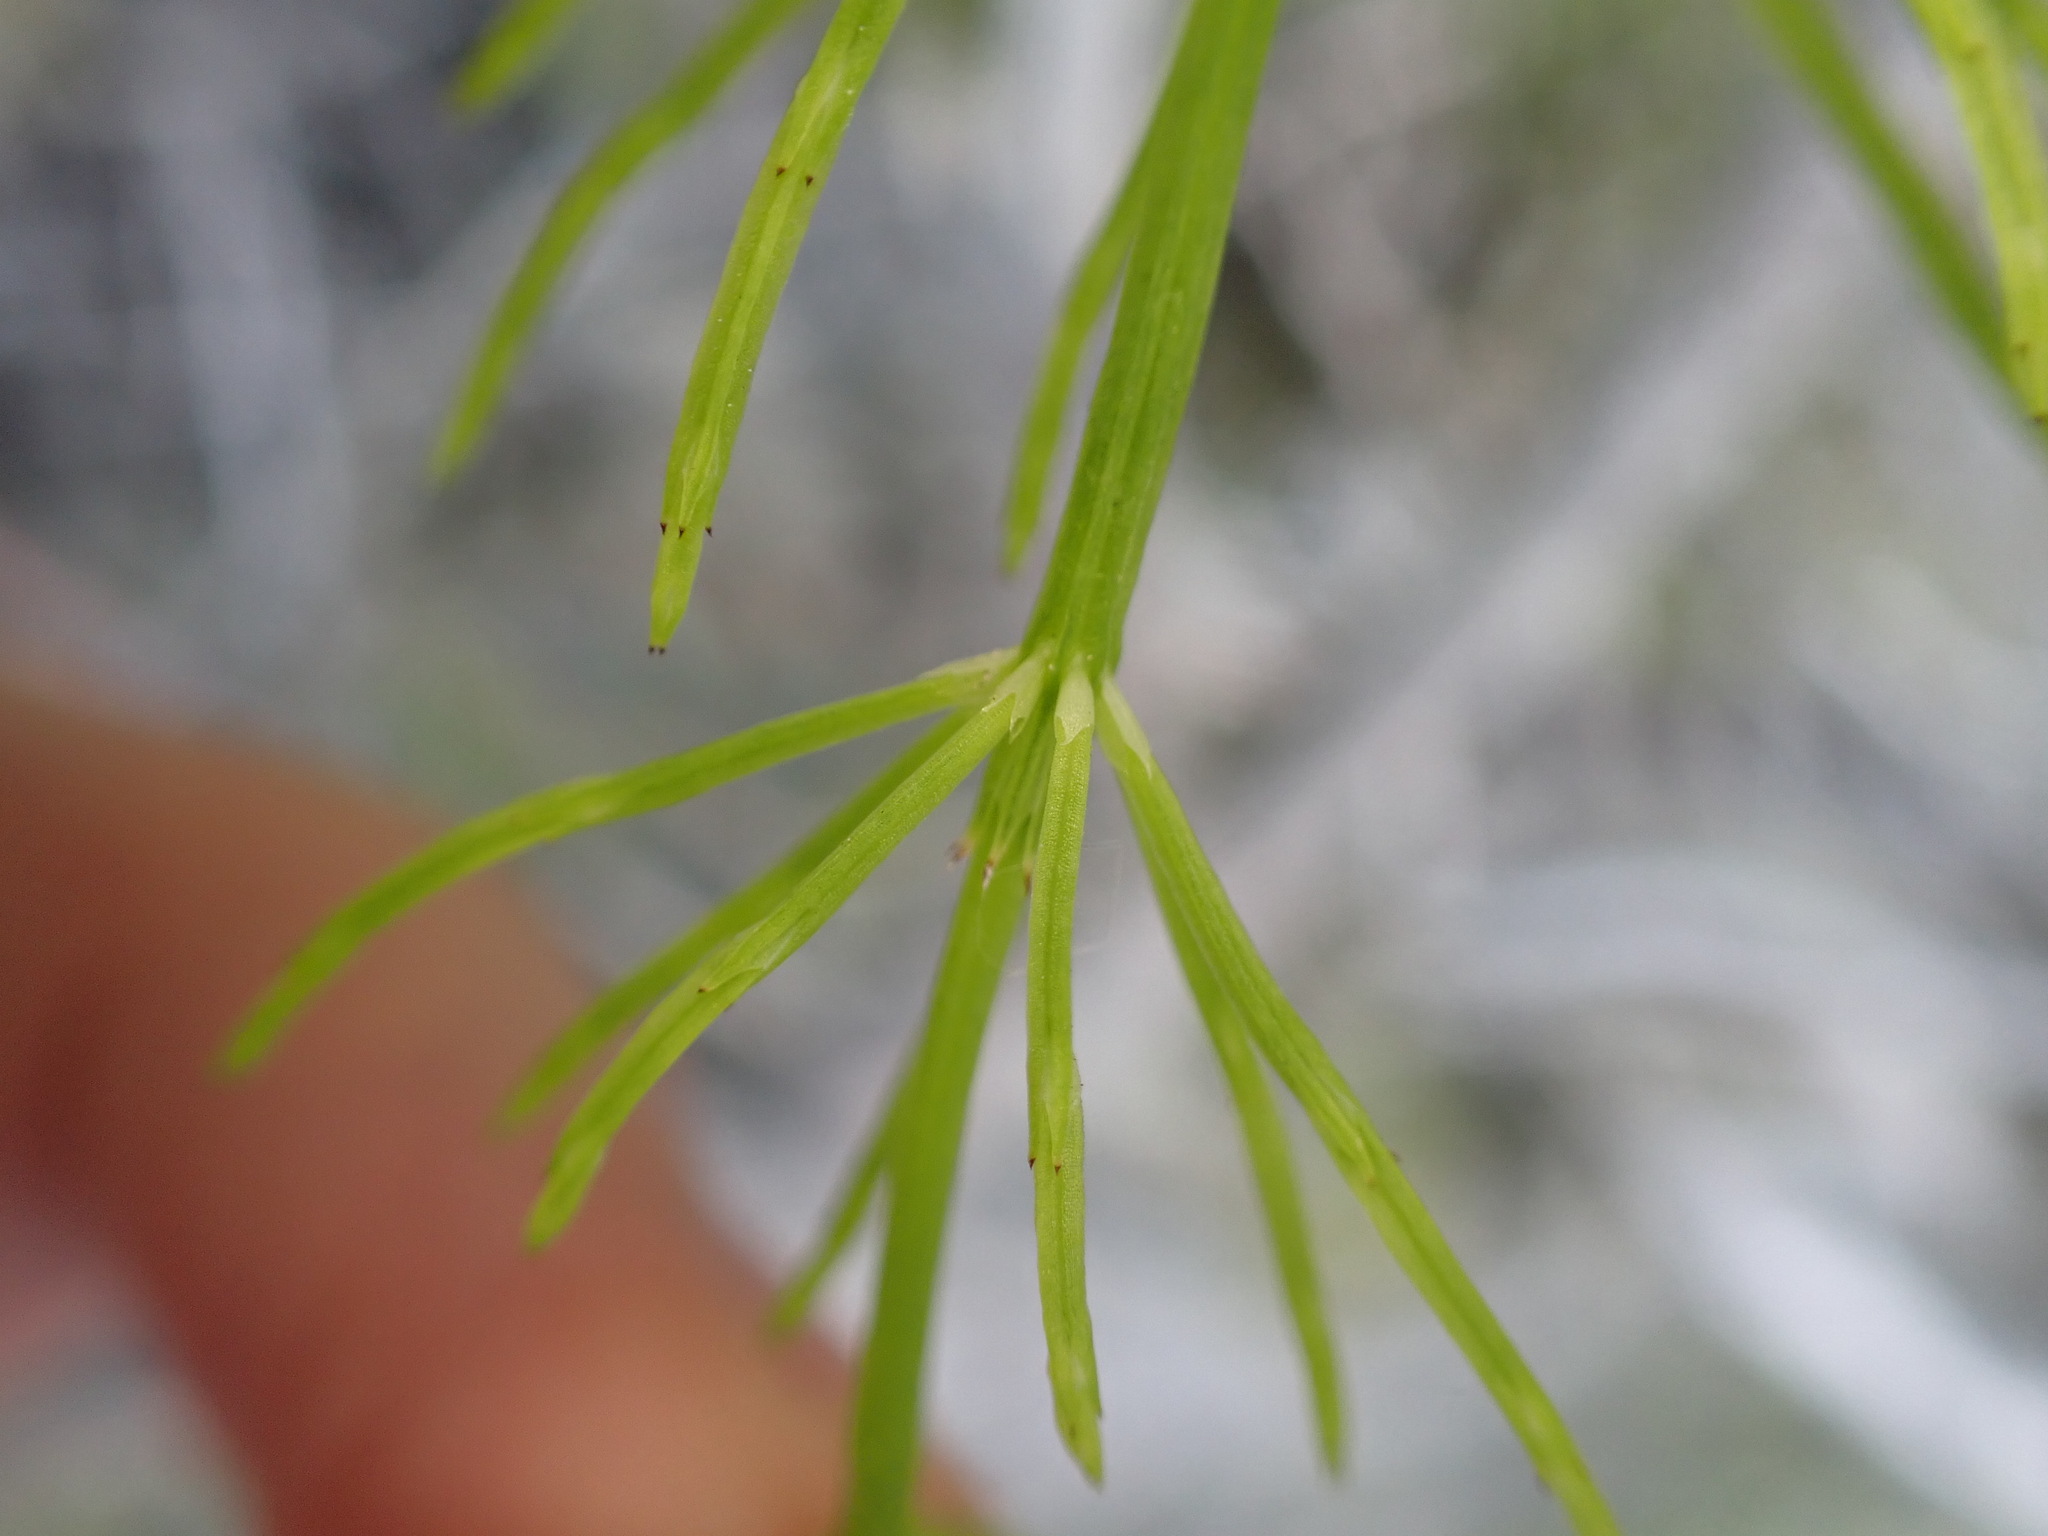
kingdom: Plantae
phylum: Tracheophyta
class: Polypodiopsida
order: Equisetales
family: Equisetaceae
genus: Equisetum
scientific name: Equisetum arvense
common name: Field horsetail
